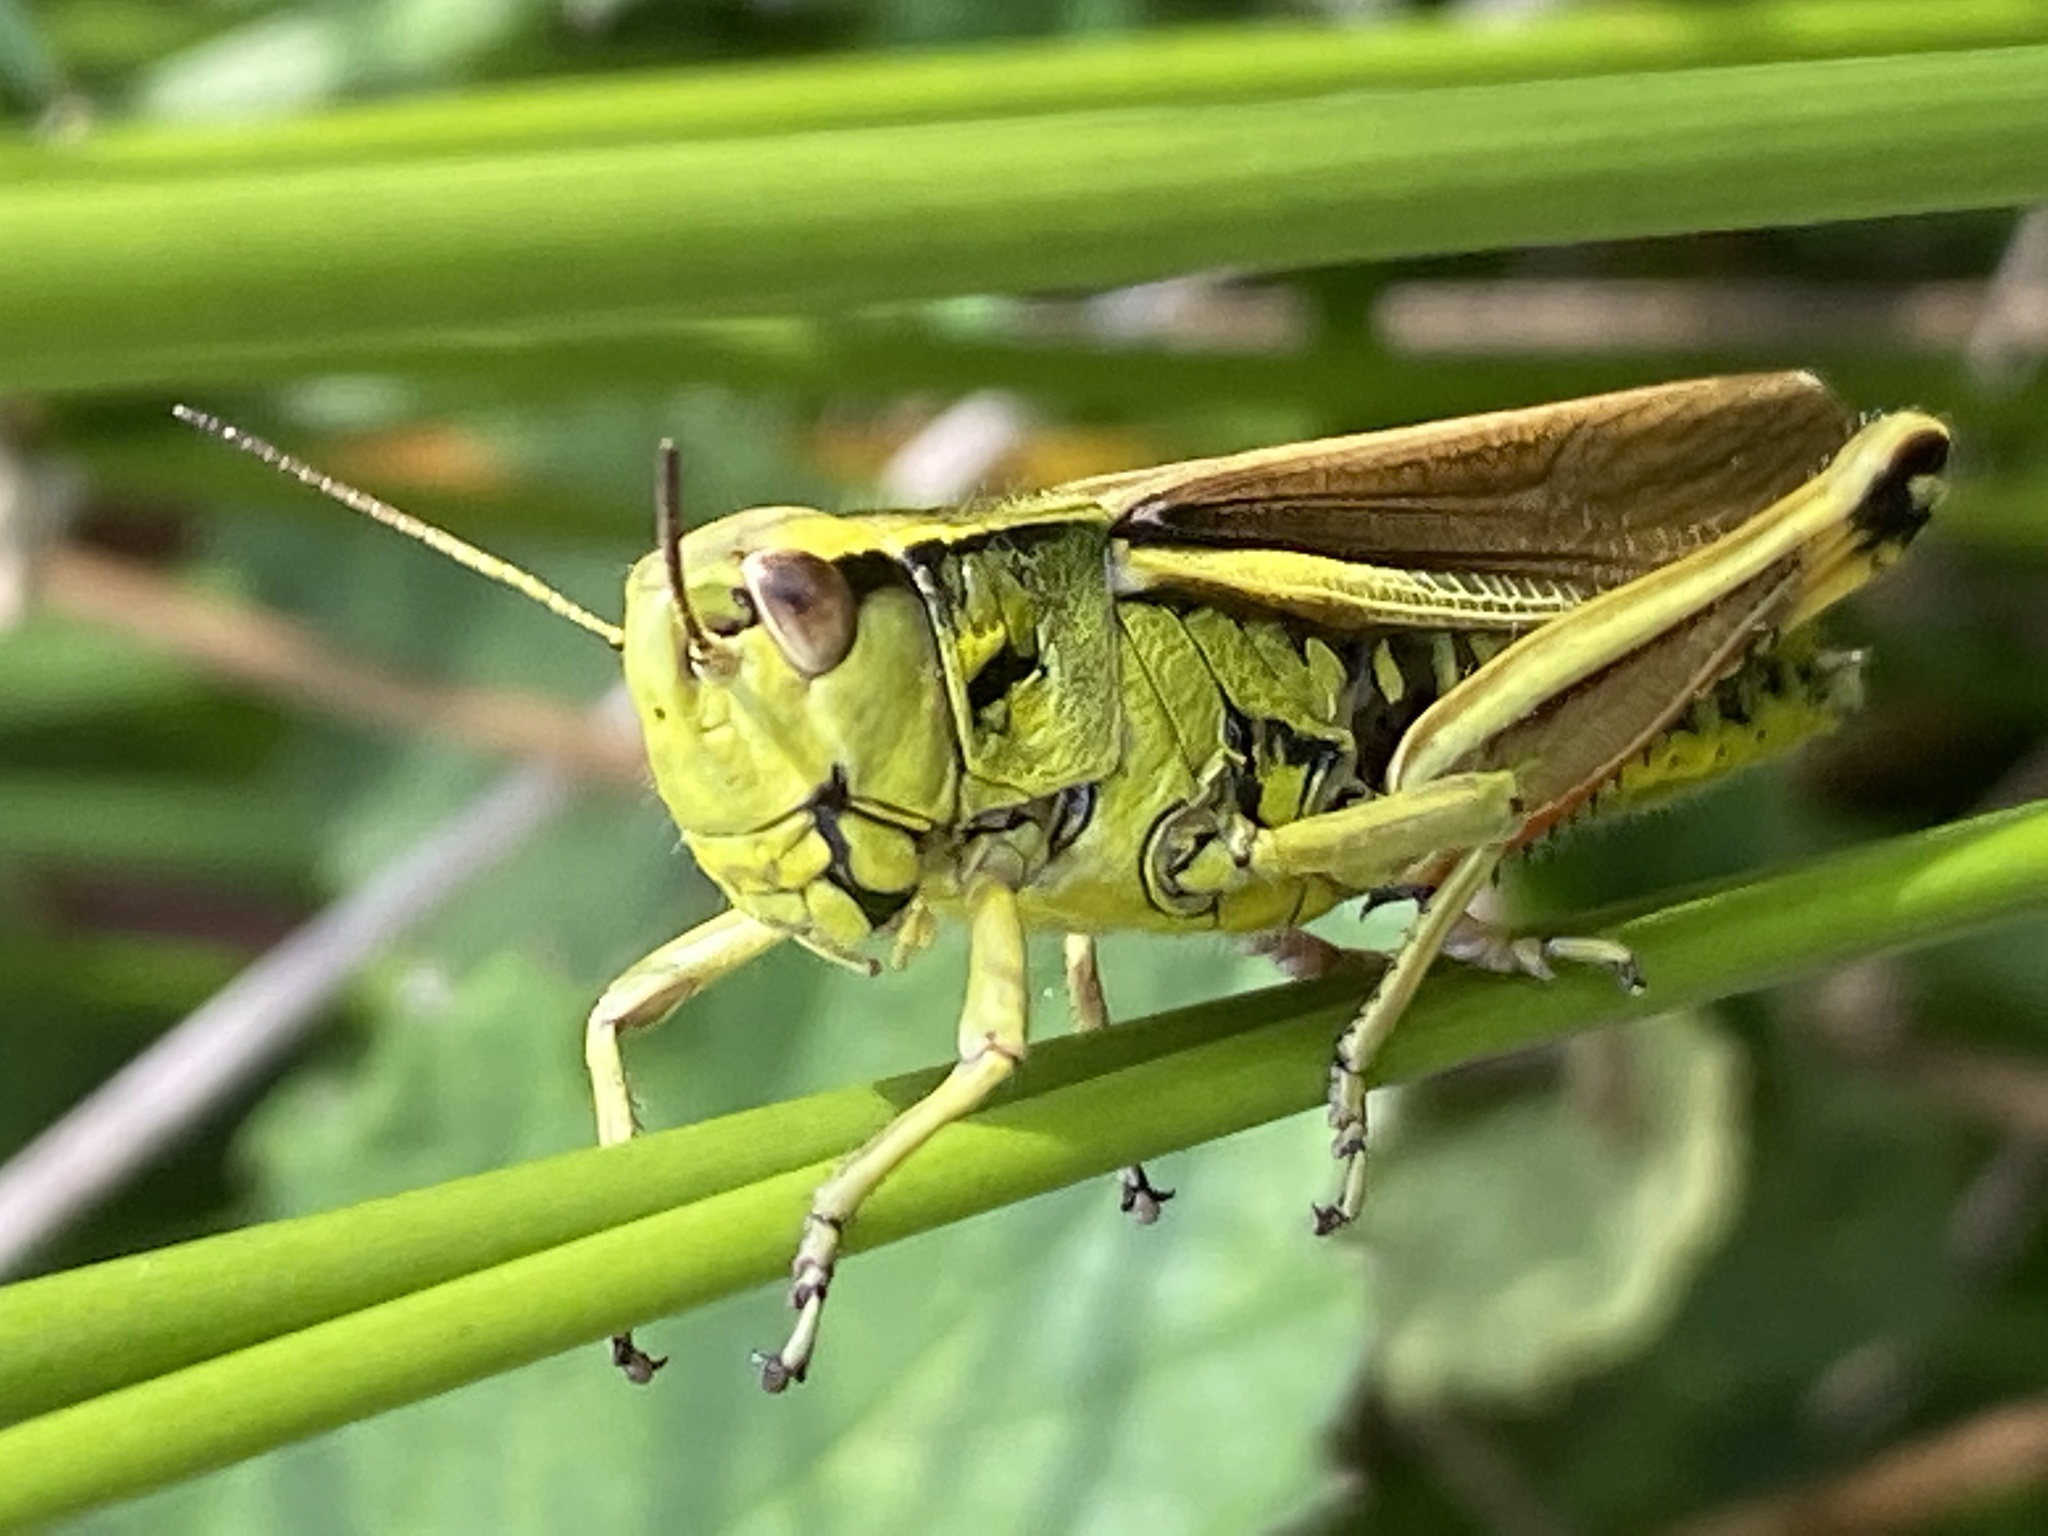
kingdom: Animalia
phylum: Arthropoda
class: Insecta
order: Orthoptera
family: Acrididae
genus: Stethophyma
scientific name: Stethophyma grossum
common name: Large marsh grasshopper
